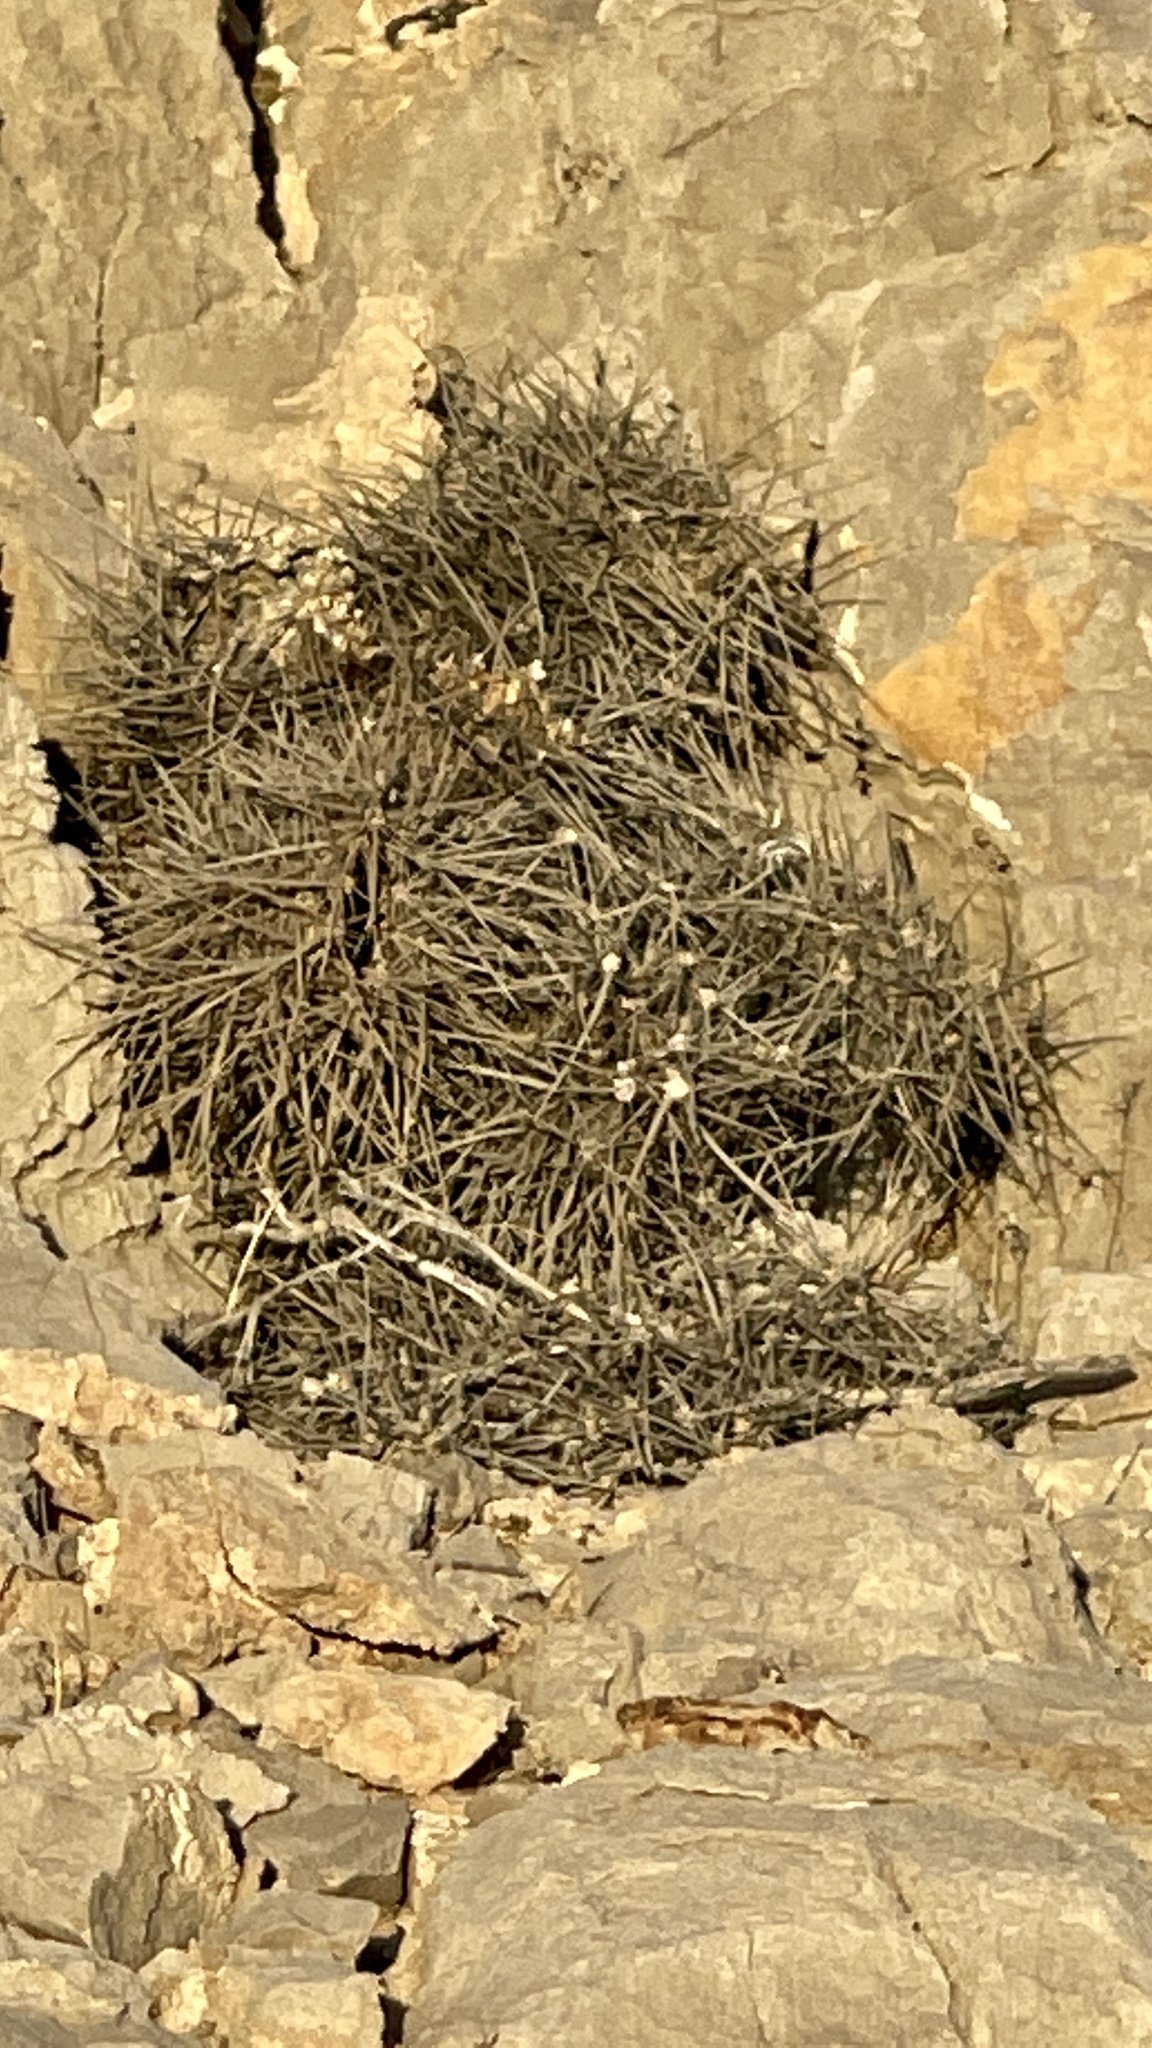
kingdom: Plantae
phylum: Tracheophyta
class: Magnoliopsida
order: Caryophyllales
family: Cactaceae
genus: Echinocereus
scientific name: Echinocereus engelmannii
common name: Engelmann's hedgehog cactus
